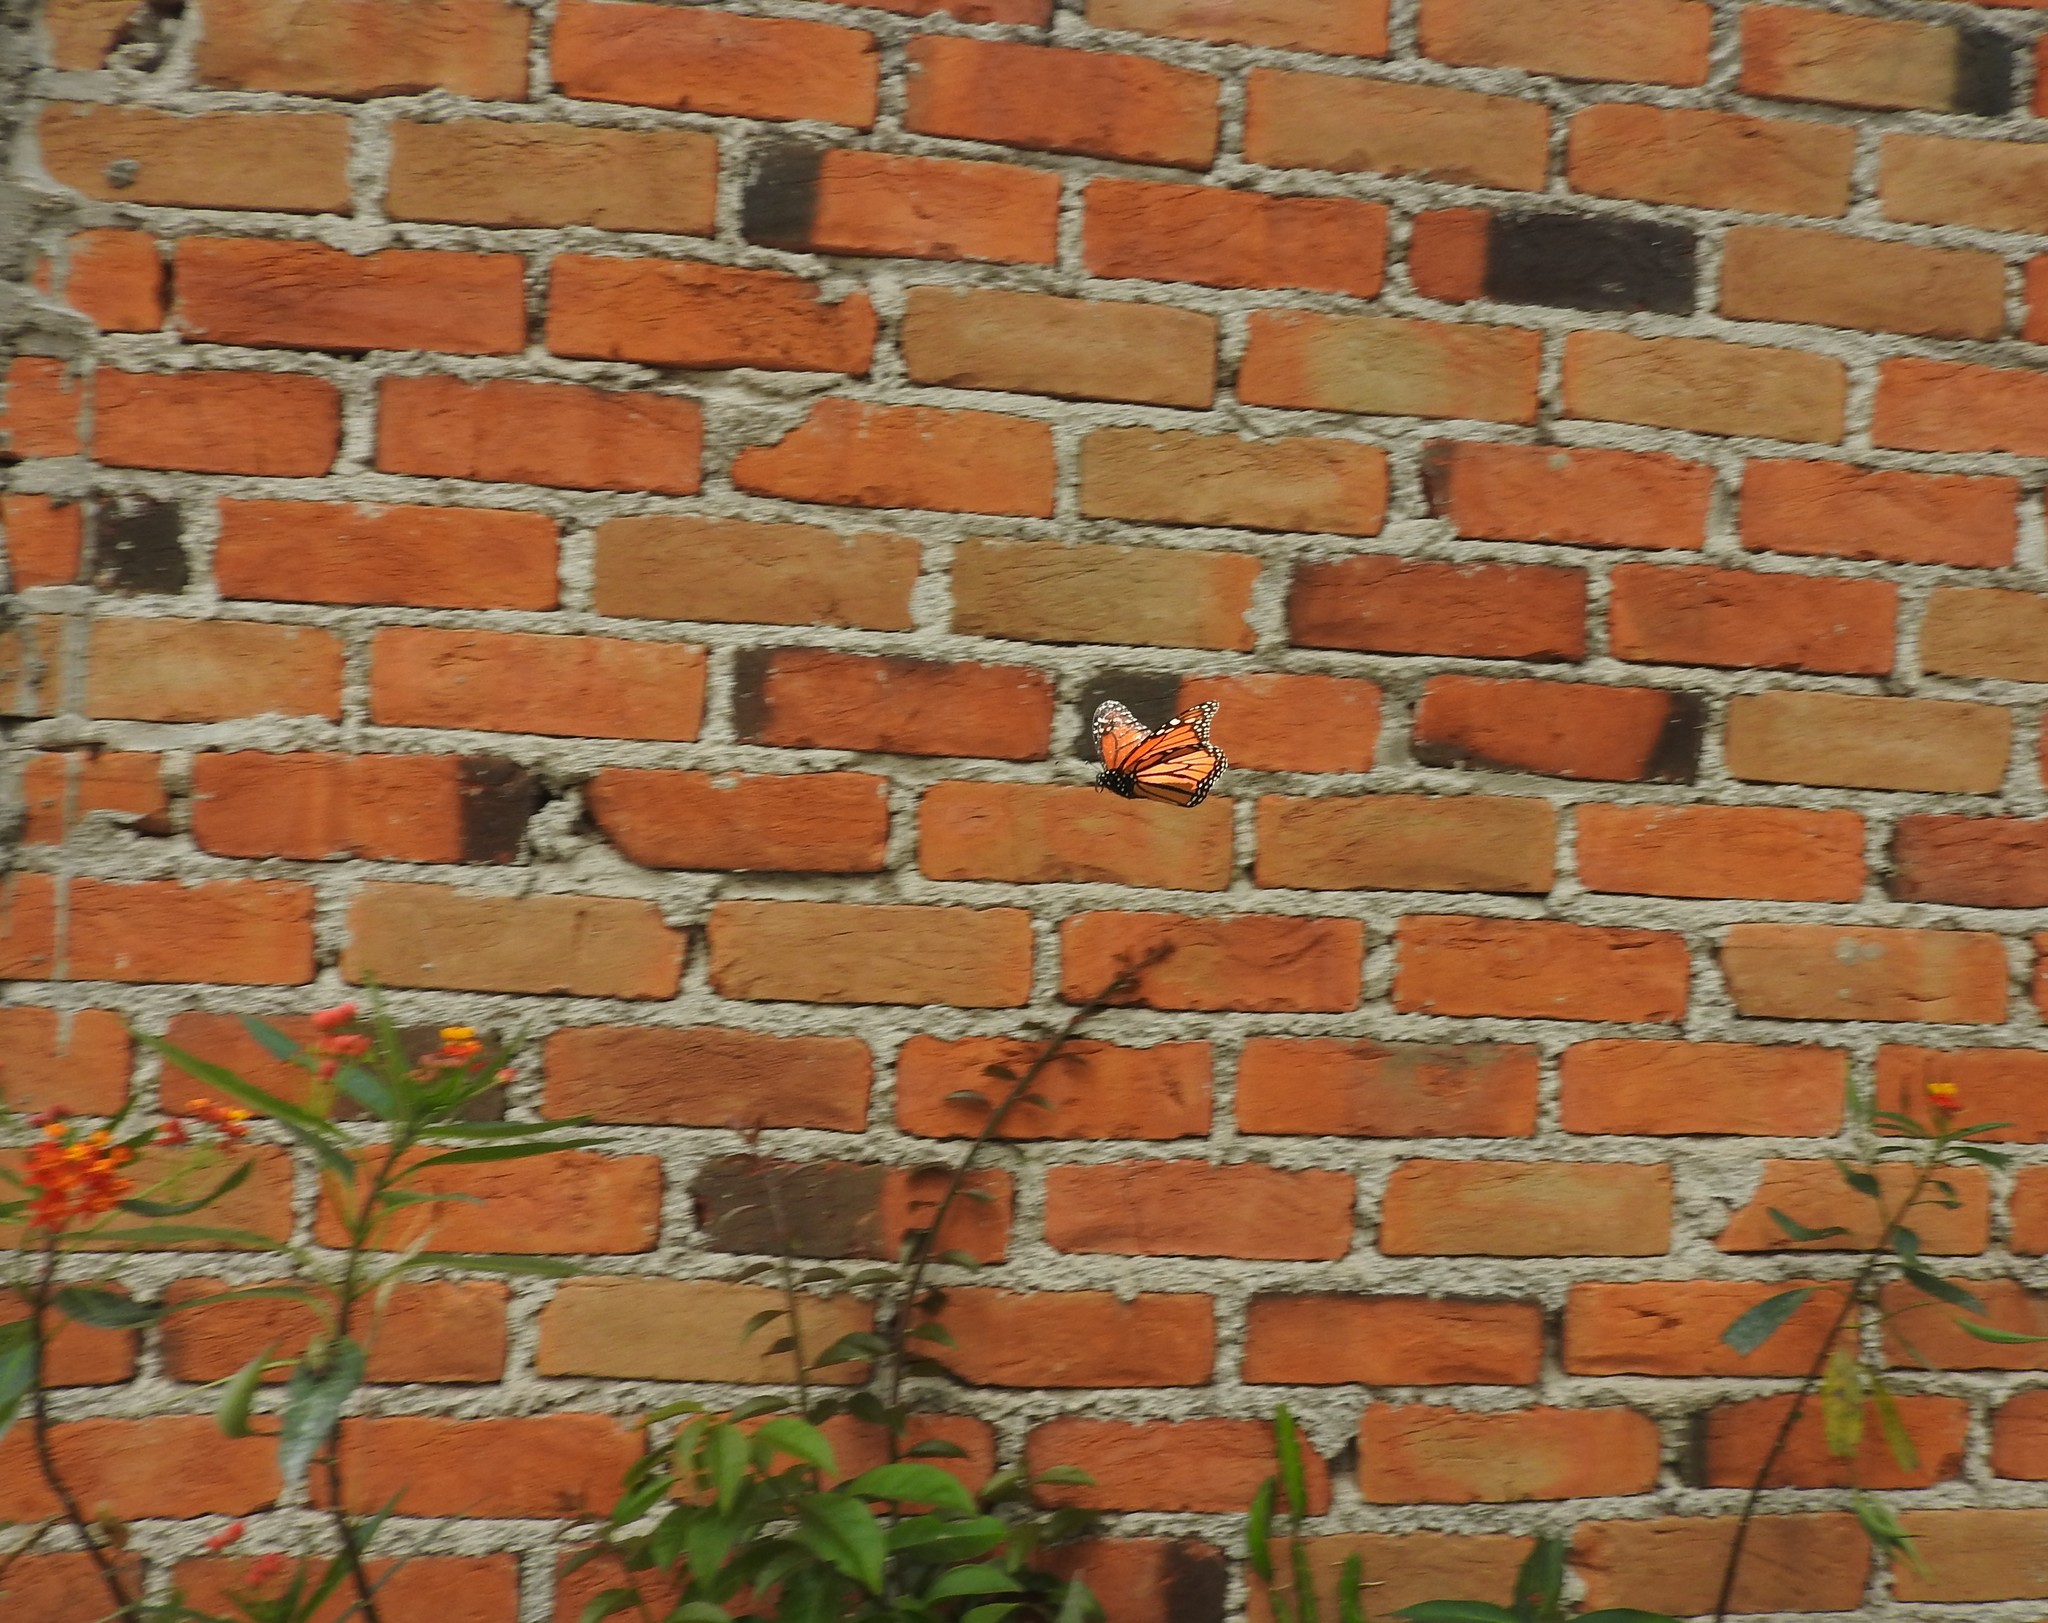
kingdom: Animalia
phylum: Arthropoda
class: Insecta
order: Lepidoptera
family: Nymphalidae
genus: Danaus
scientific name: Danaus plexippus
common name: Monarch
